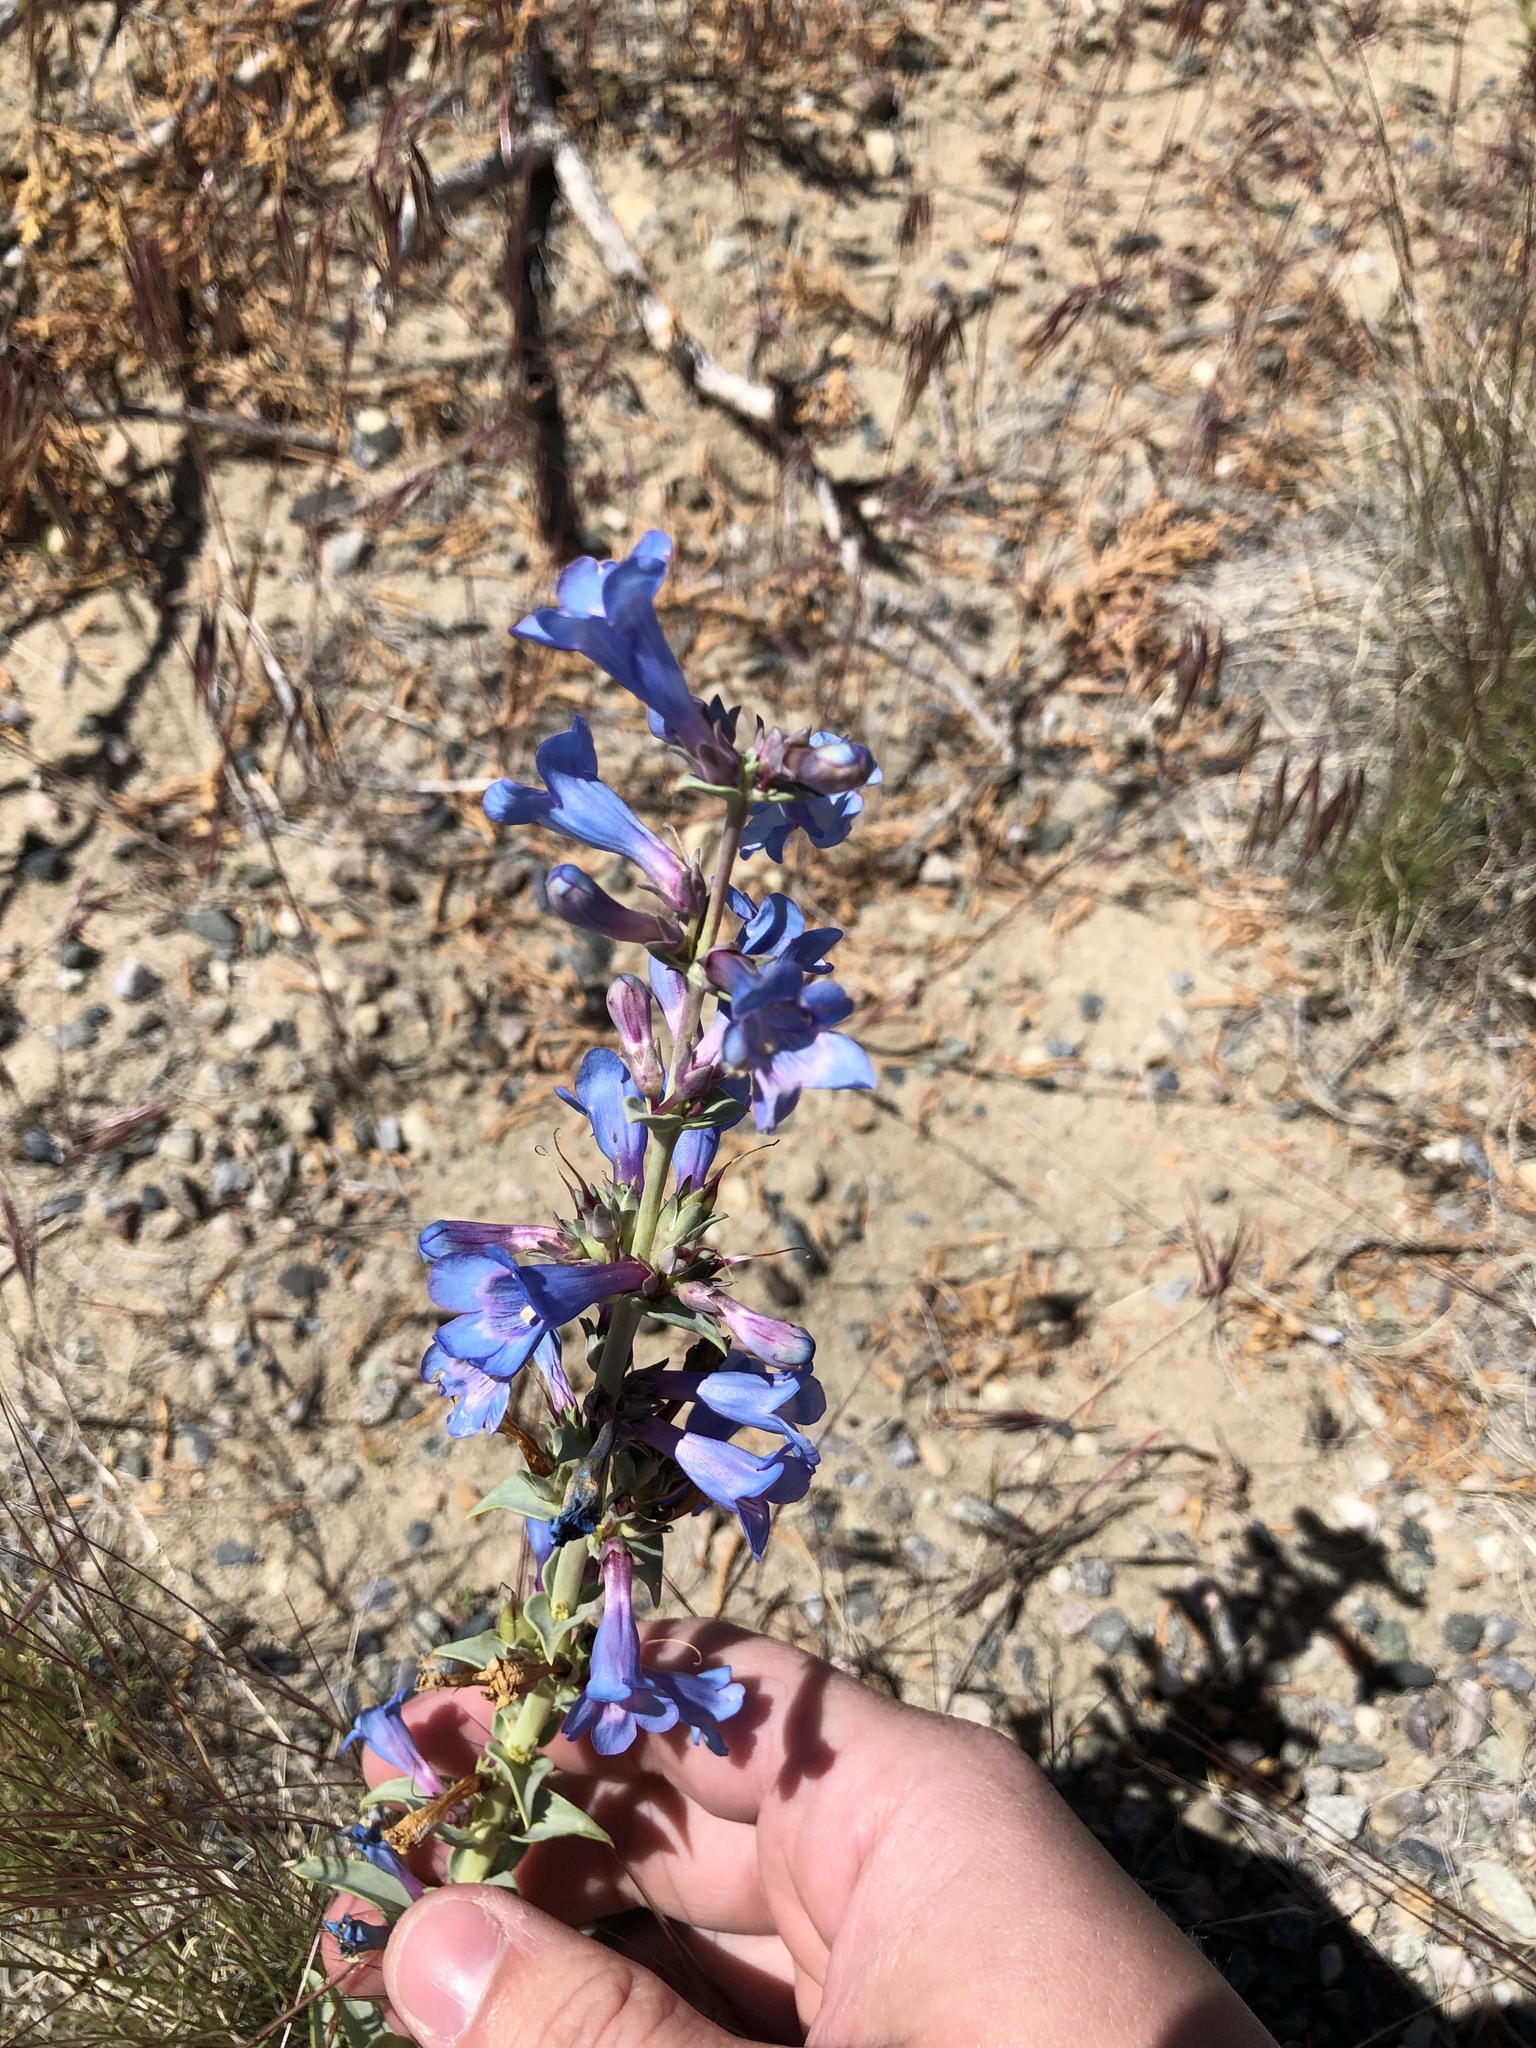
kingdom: Plantae
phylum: Tracheophyta
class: Magnoliopsida
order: Lamiales
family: Plantaginaceae
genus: Penstemon
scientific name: Penstemon angustifolius
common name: Narrow beardtongue
